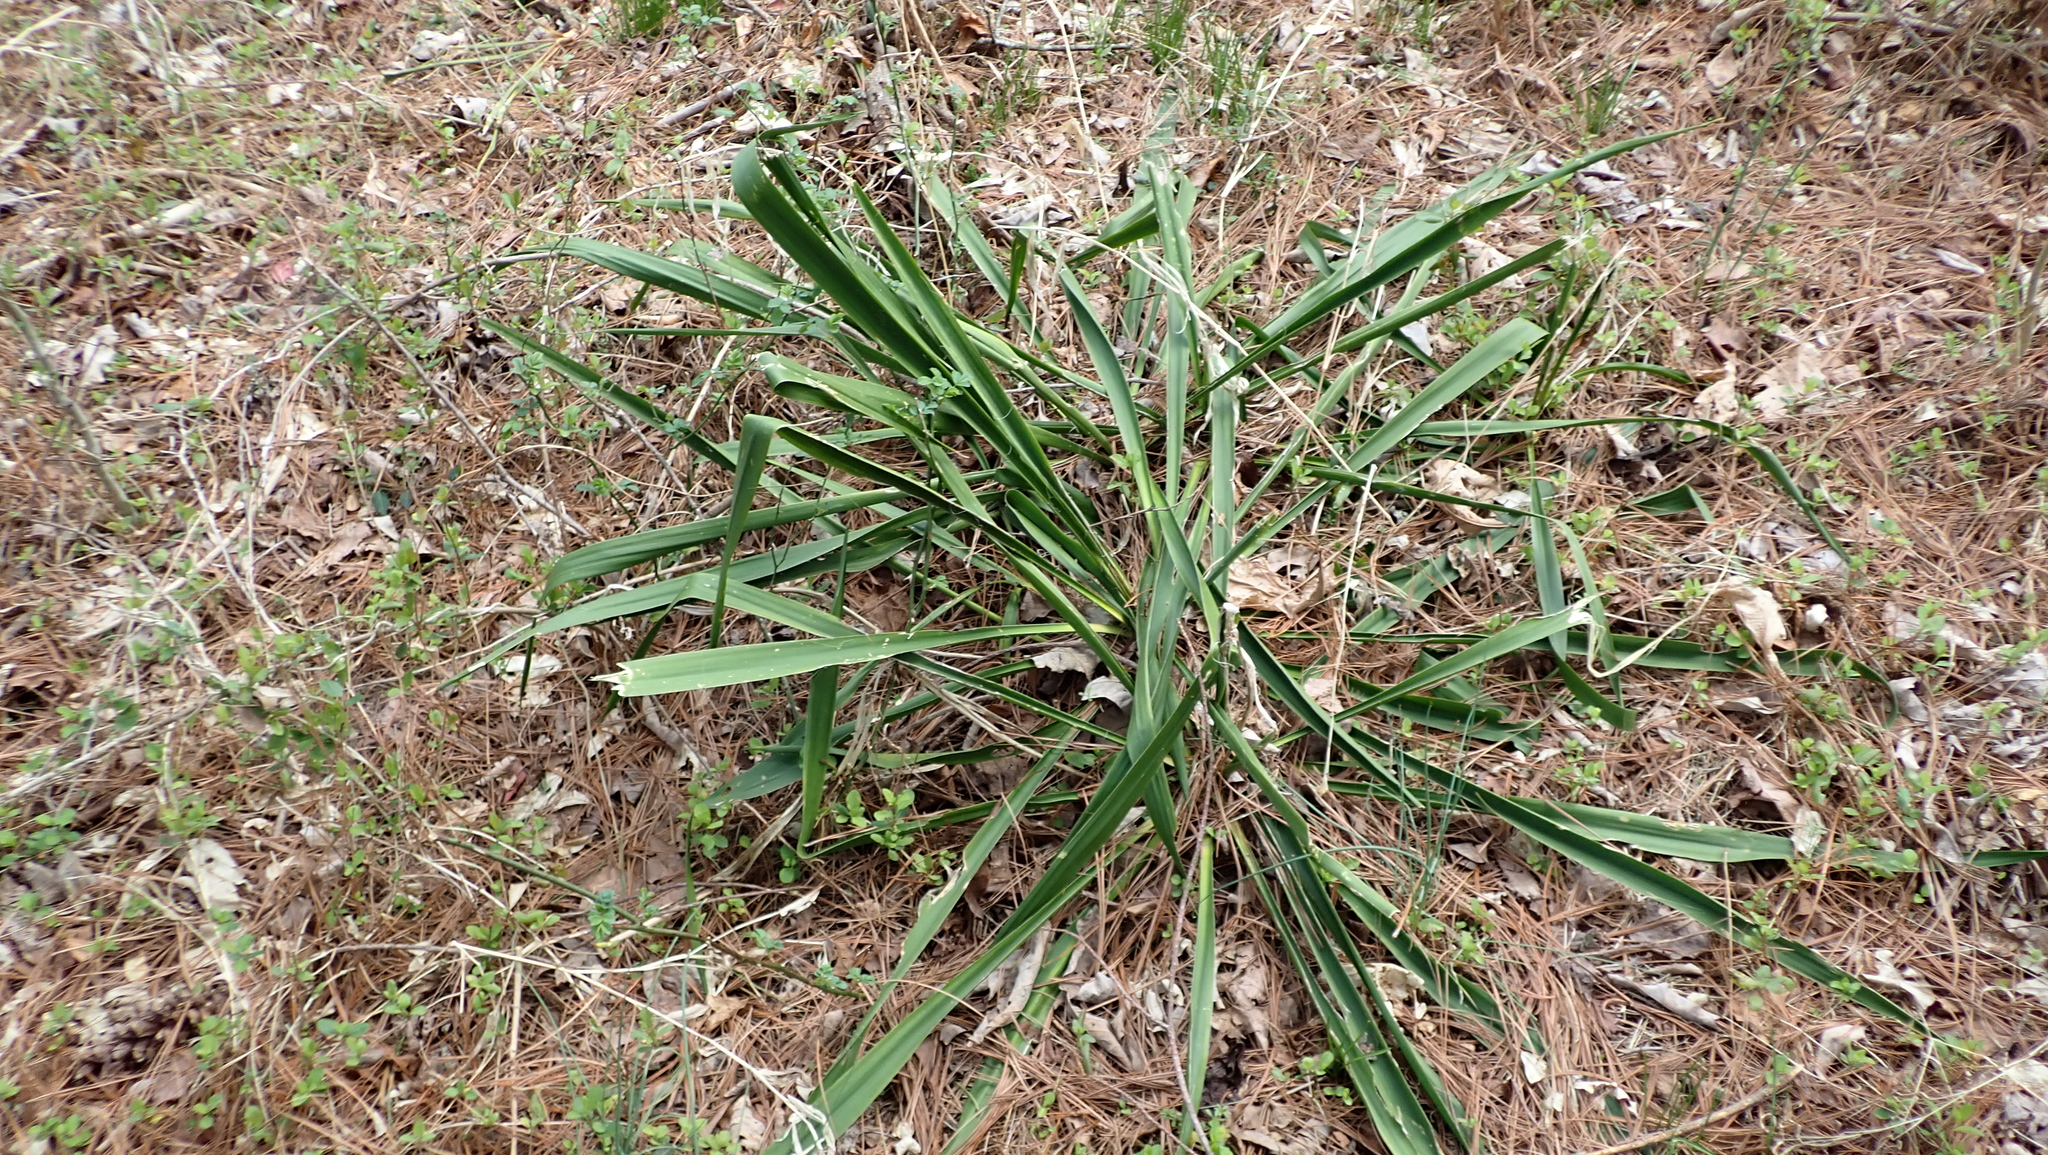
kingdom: Plantae
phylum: Tracheophyta
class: Liliopsida
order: Asparagales
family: Asparagaceae
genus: Yucca
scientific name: Yucca filamentosa
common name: Adam's-needle
